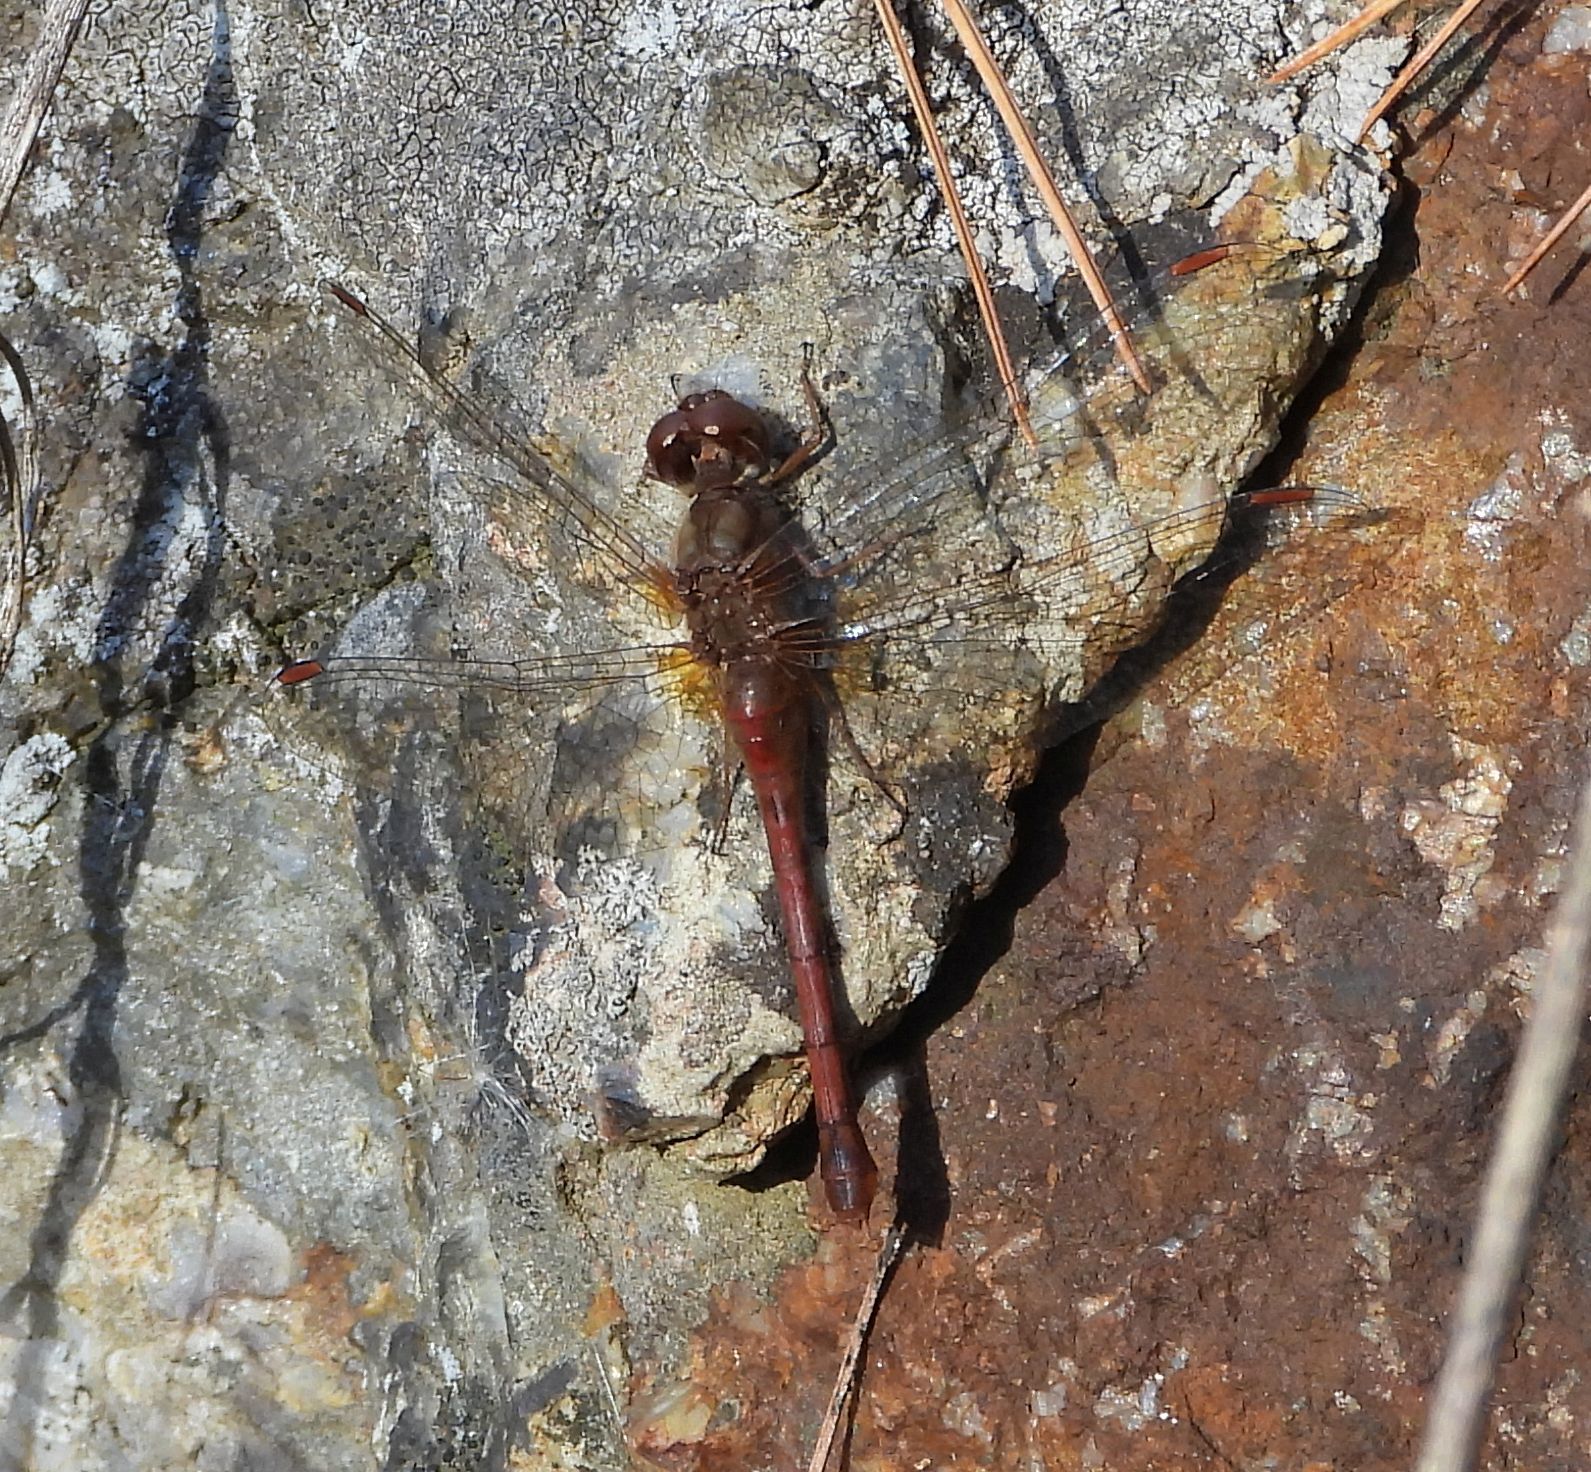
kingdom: Animalia
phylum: Arthropoda
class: Insecta
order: Odonata
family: Libellulidae
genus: Sympetrum
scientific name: Sympetrum vicinum
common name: Autumn meadowhawk
